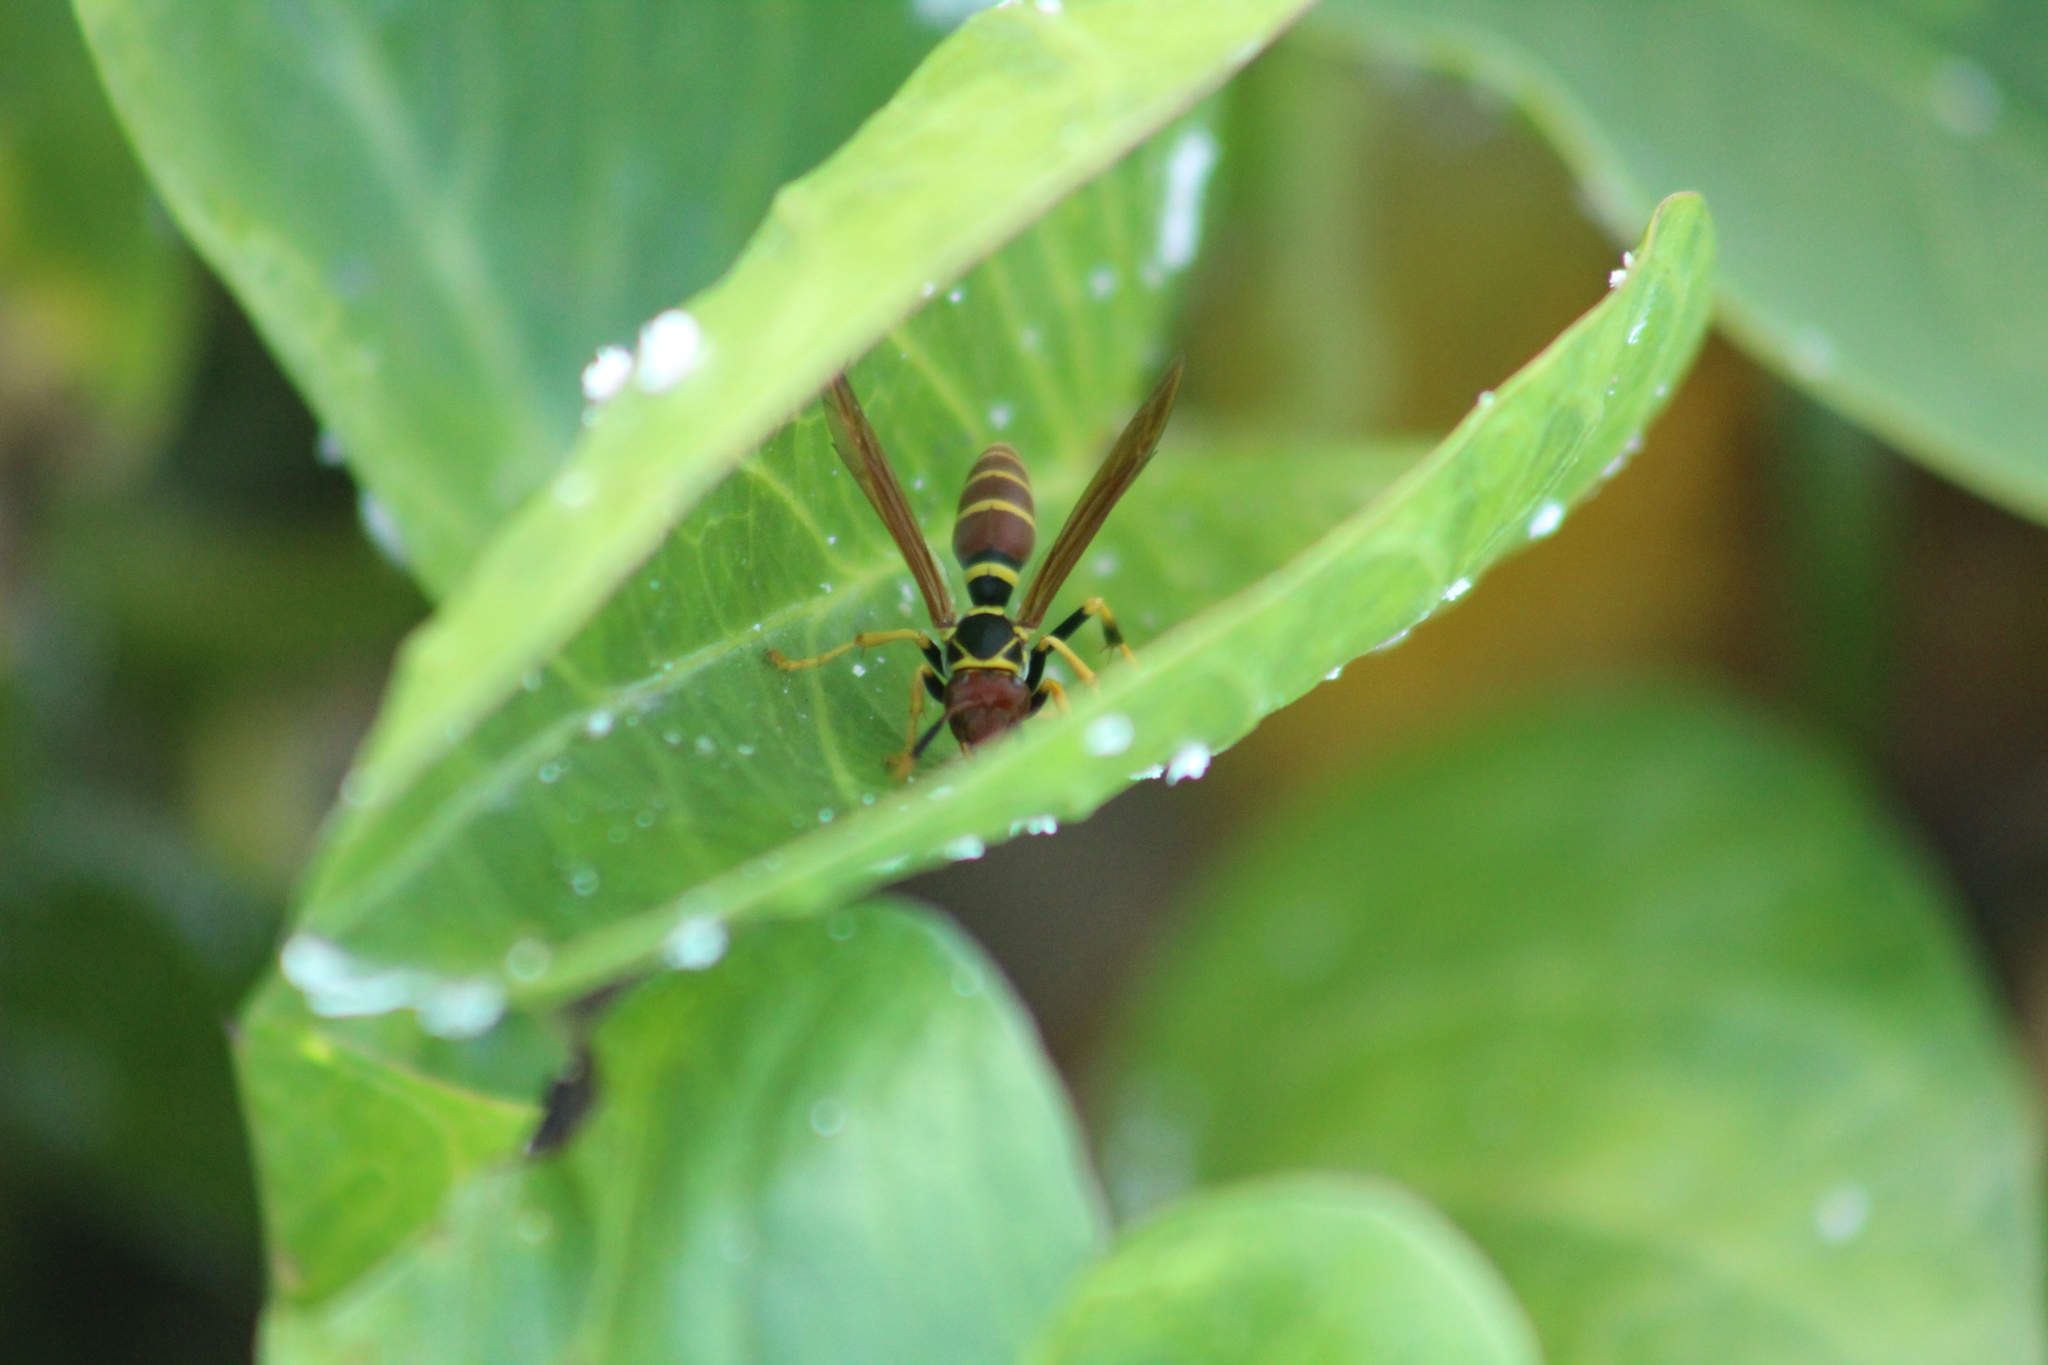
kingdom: Animalia
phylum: Arthropoda
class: Insecta
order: Hymenoptera
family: Eumenidae
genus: Polistes
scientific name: Polistes crinitus
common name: Jack spaniard
